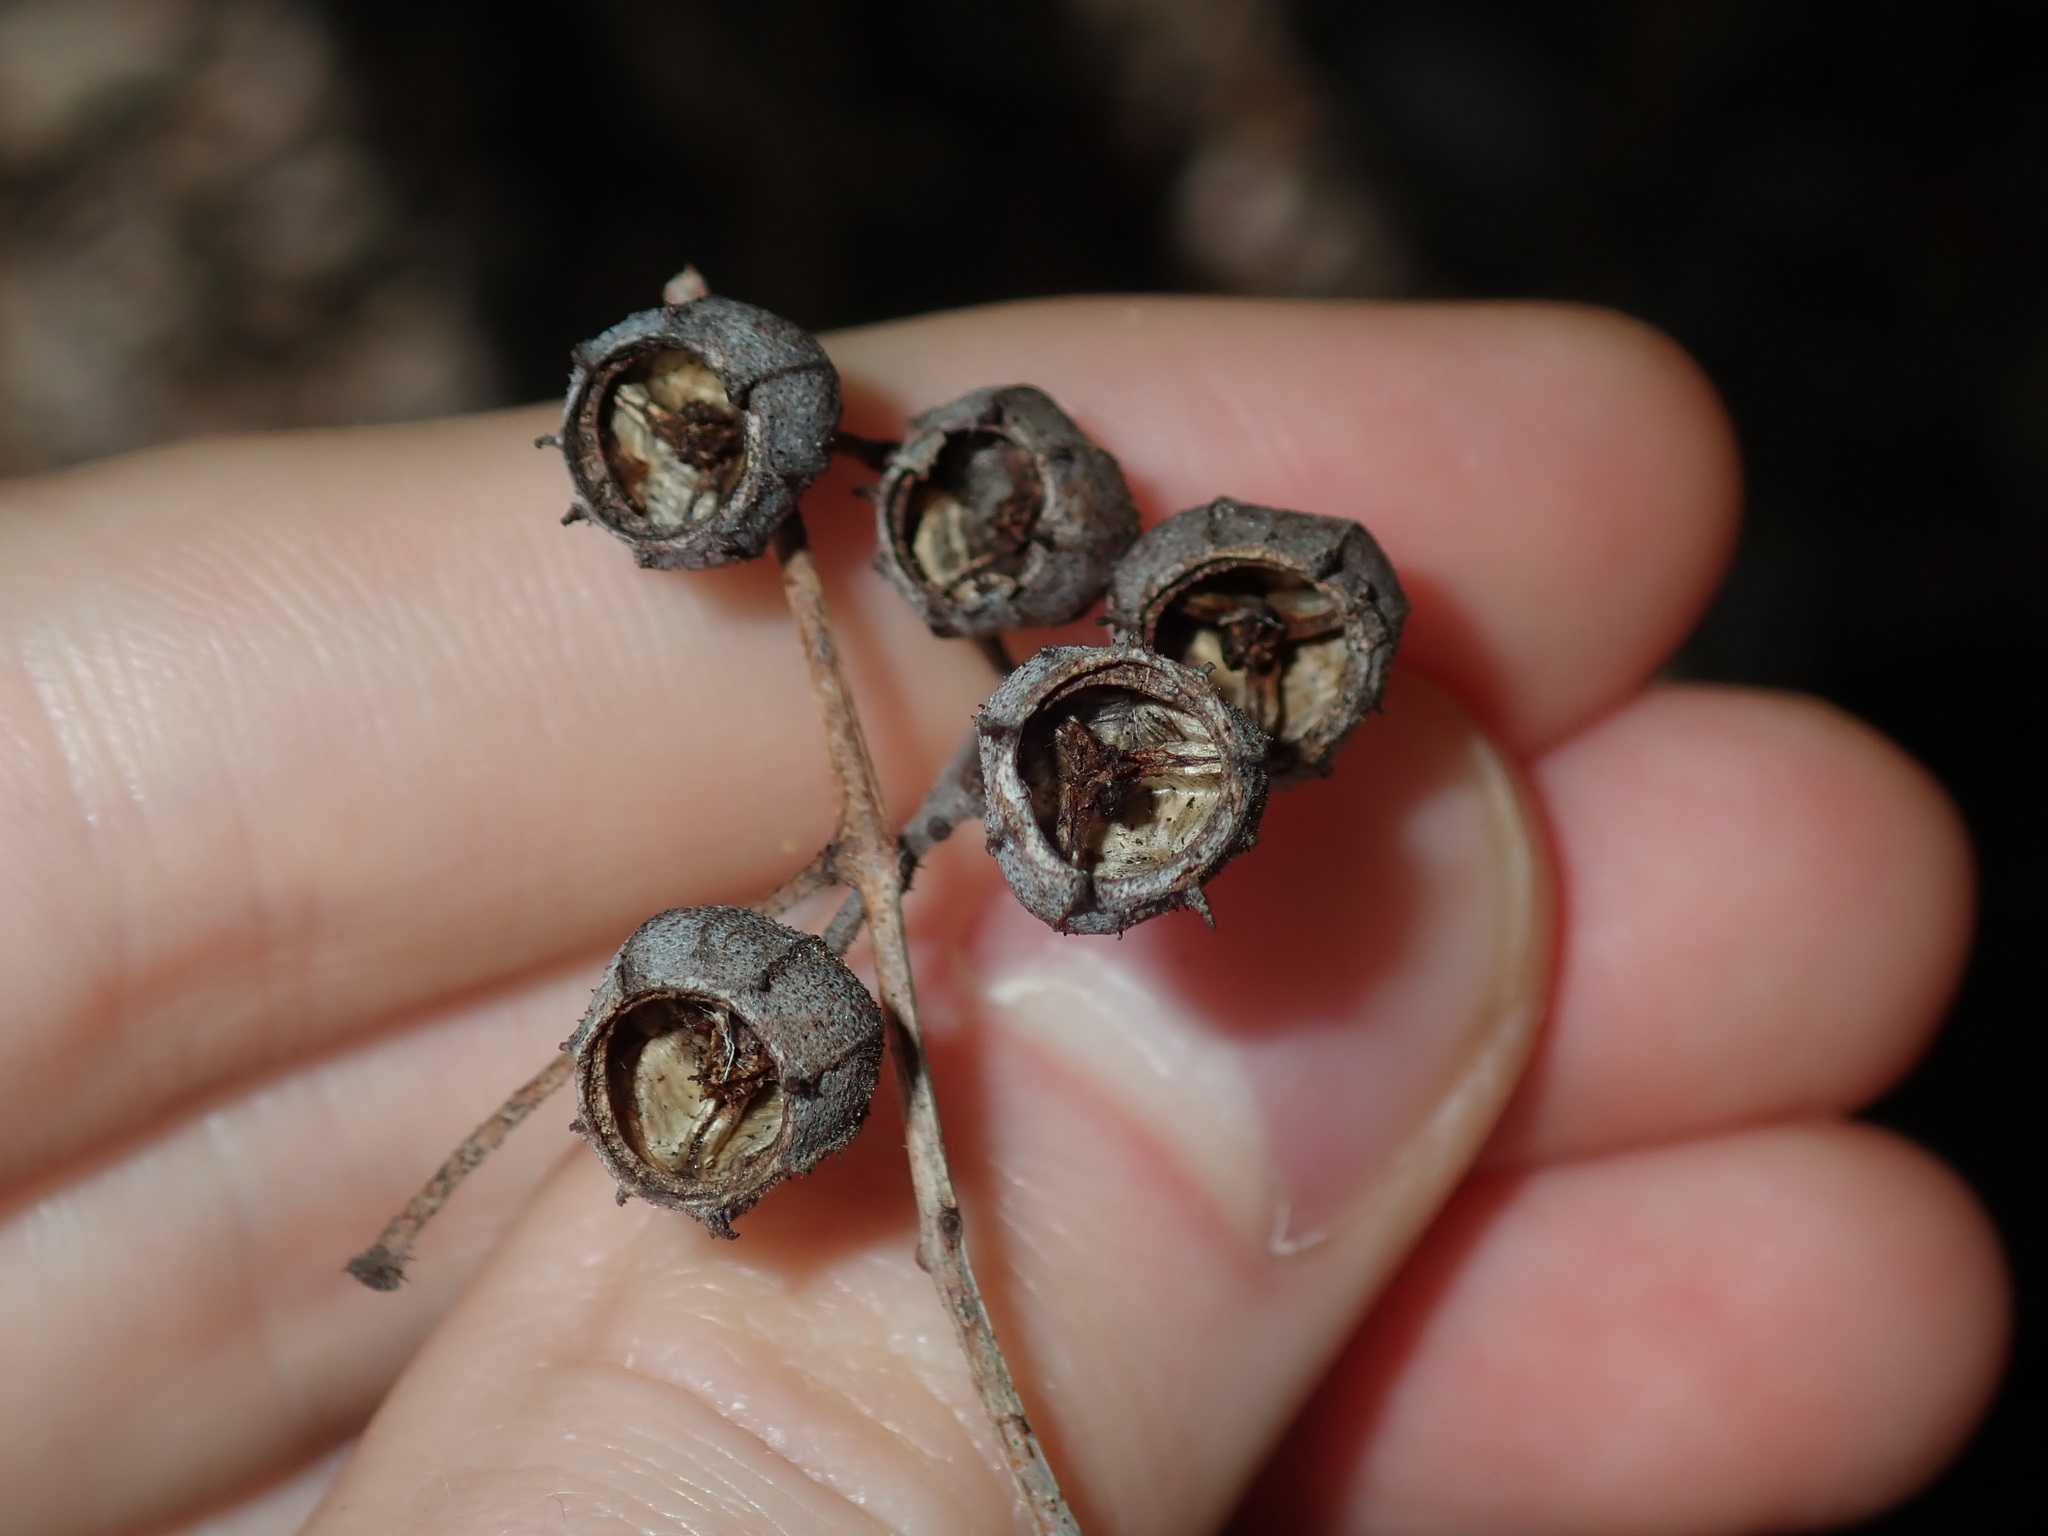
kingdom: Plantae
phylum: Tracheophyta
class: Magnoliopsida
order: Myrtales
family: Myrtaceae
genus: Angophora
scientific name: Angophora floribunda
